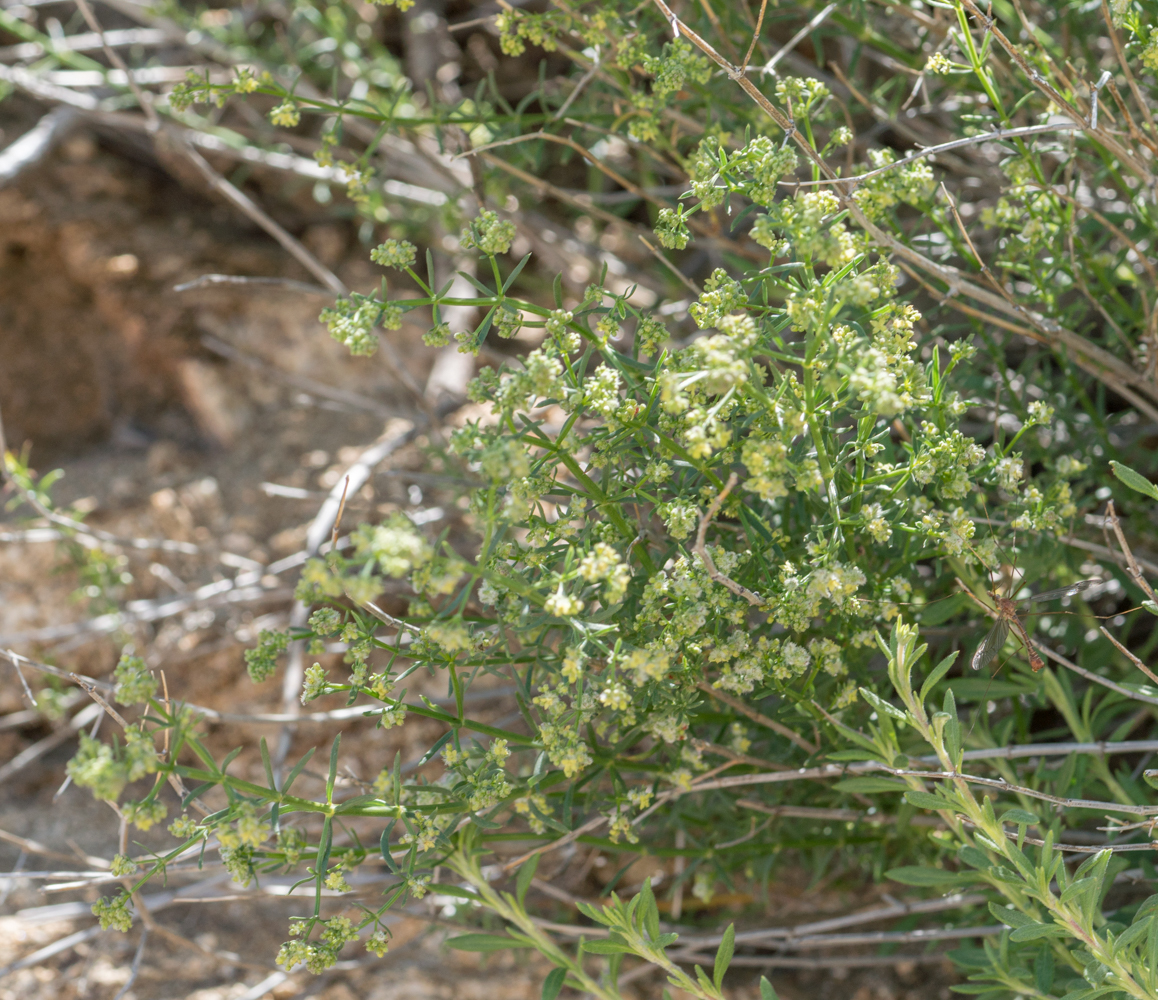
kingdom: Plantae
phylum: Tracheophyta
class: Magnoliopsida
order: Gentianales
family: Rubiaceae
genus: Galium
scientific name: Galium angustifolium
